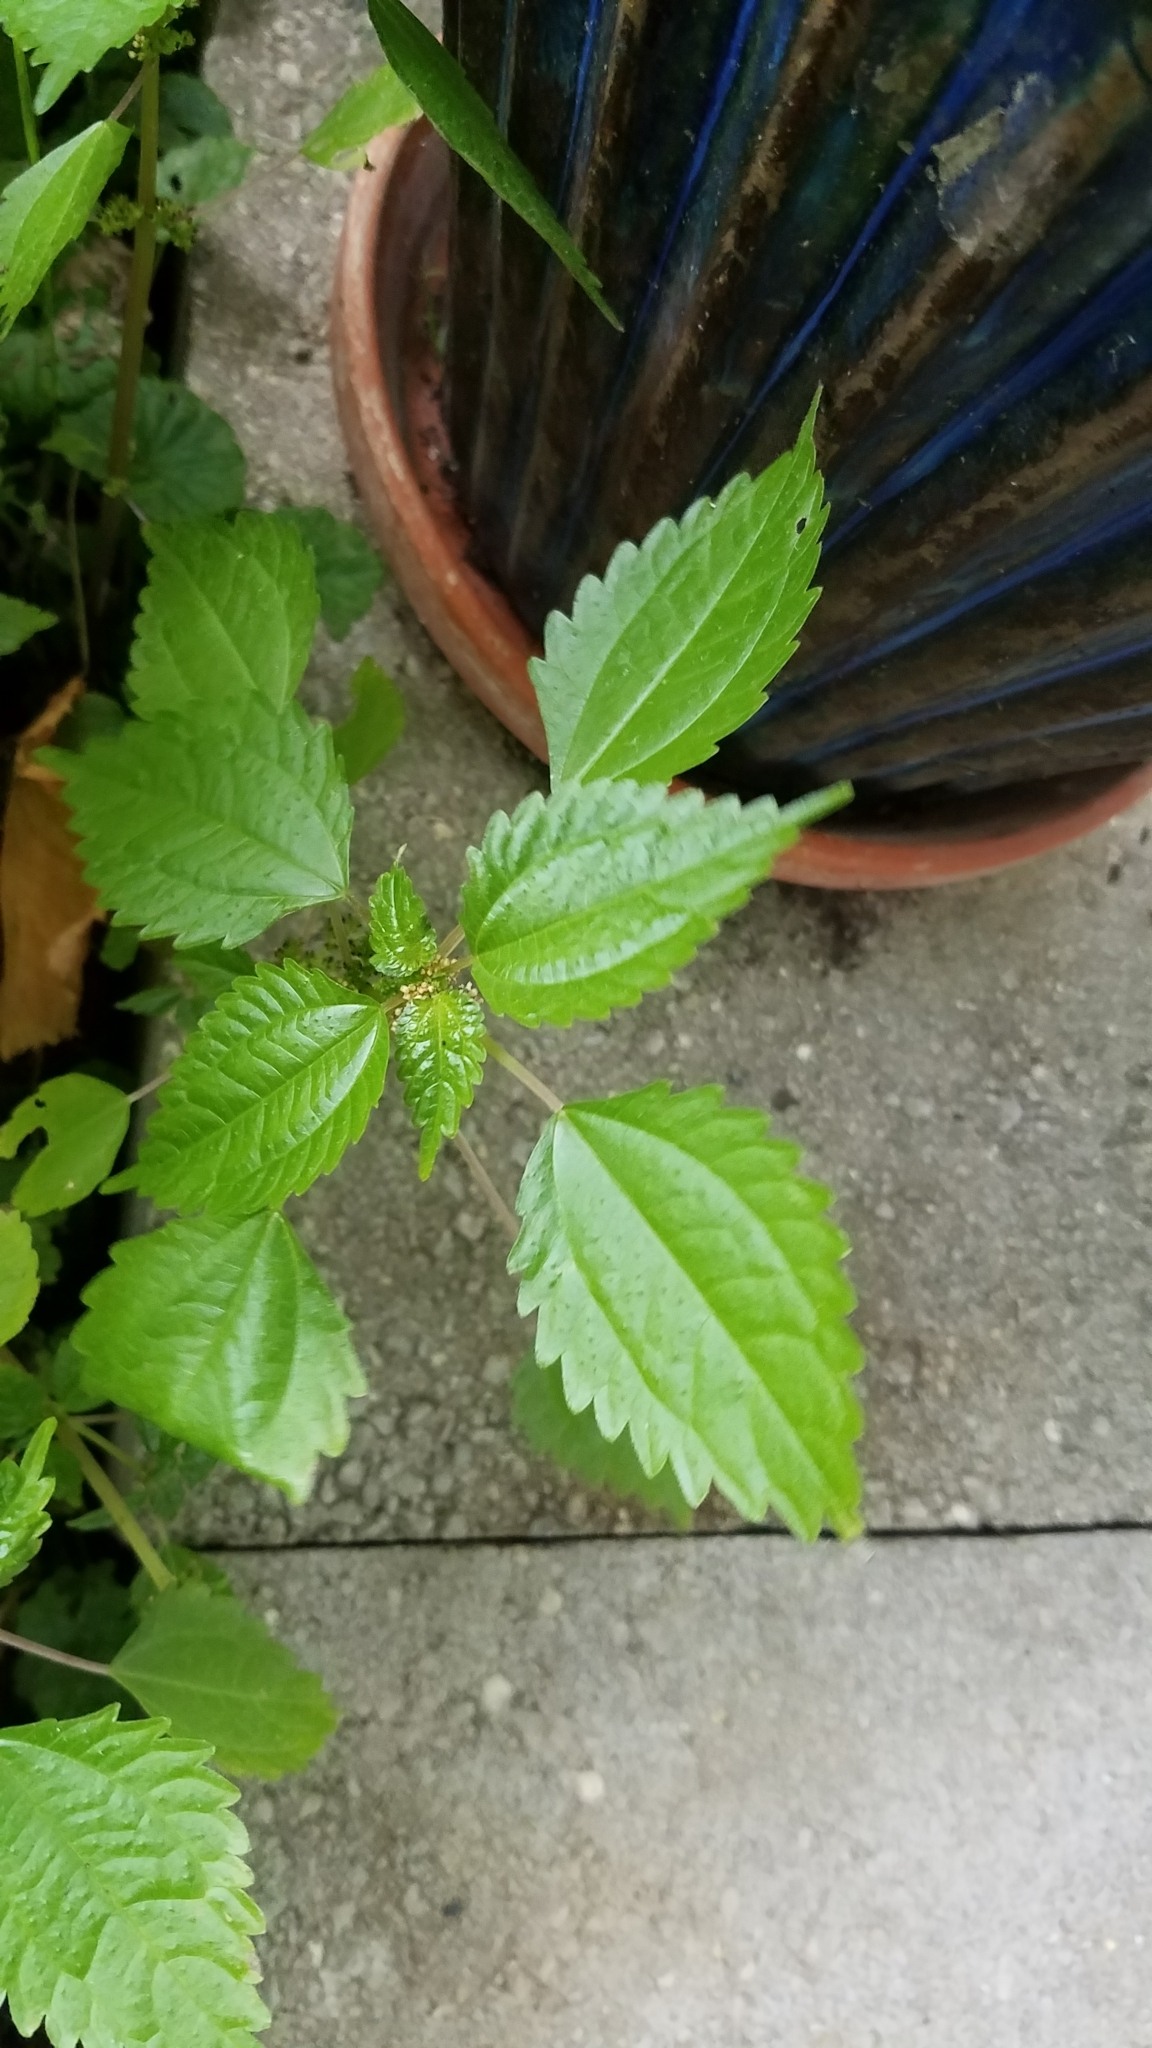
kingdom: Plantae
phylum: Tracheophyta
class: Magnoliopsida
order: Rosales
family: Urticaceae
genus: Pilea
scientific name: Pilea pumila
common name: Clearweed
